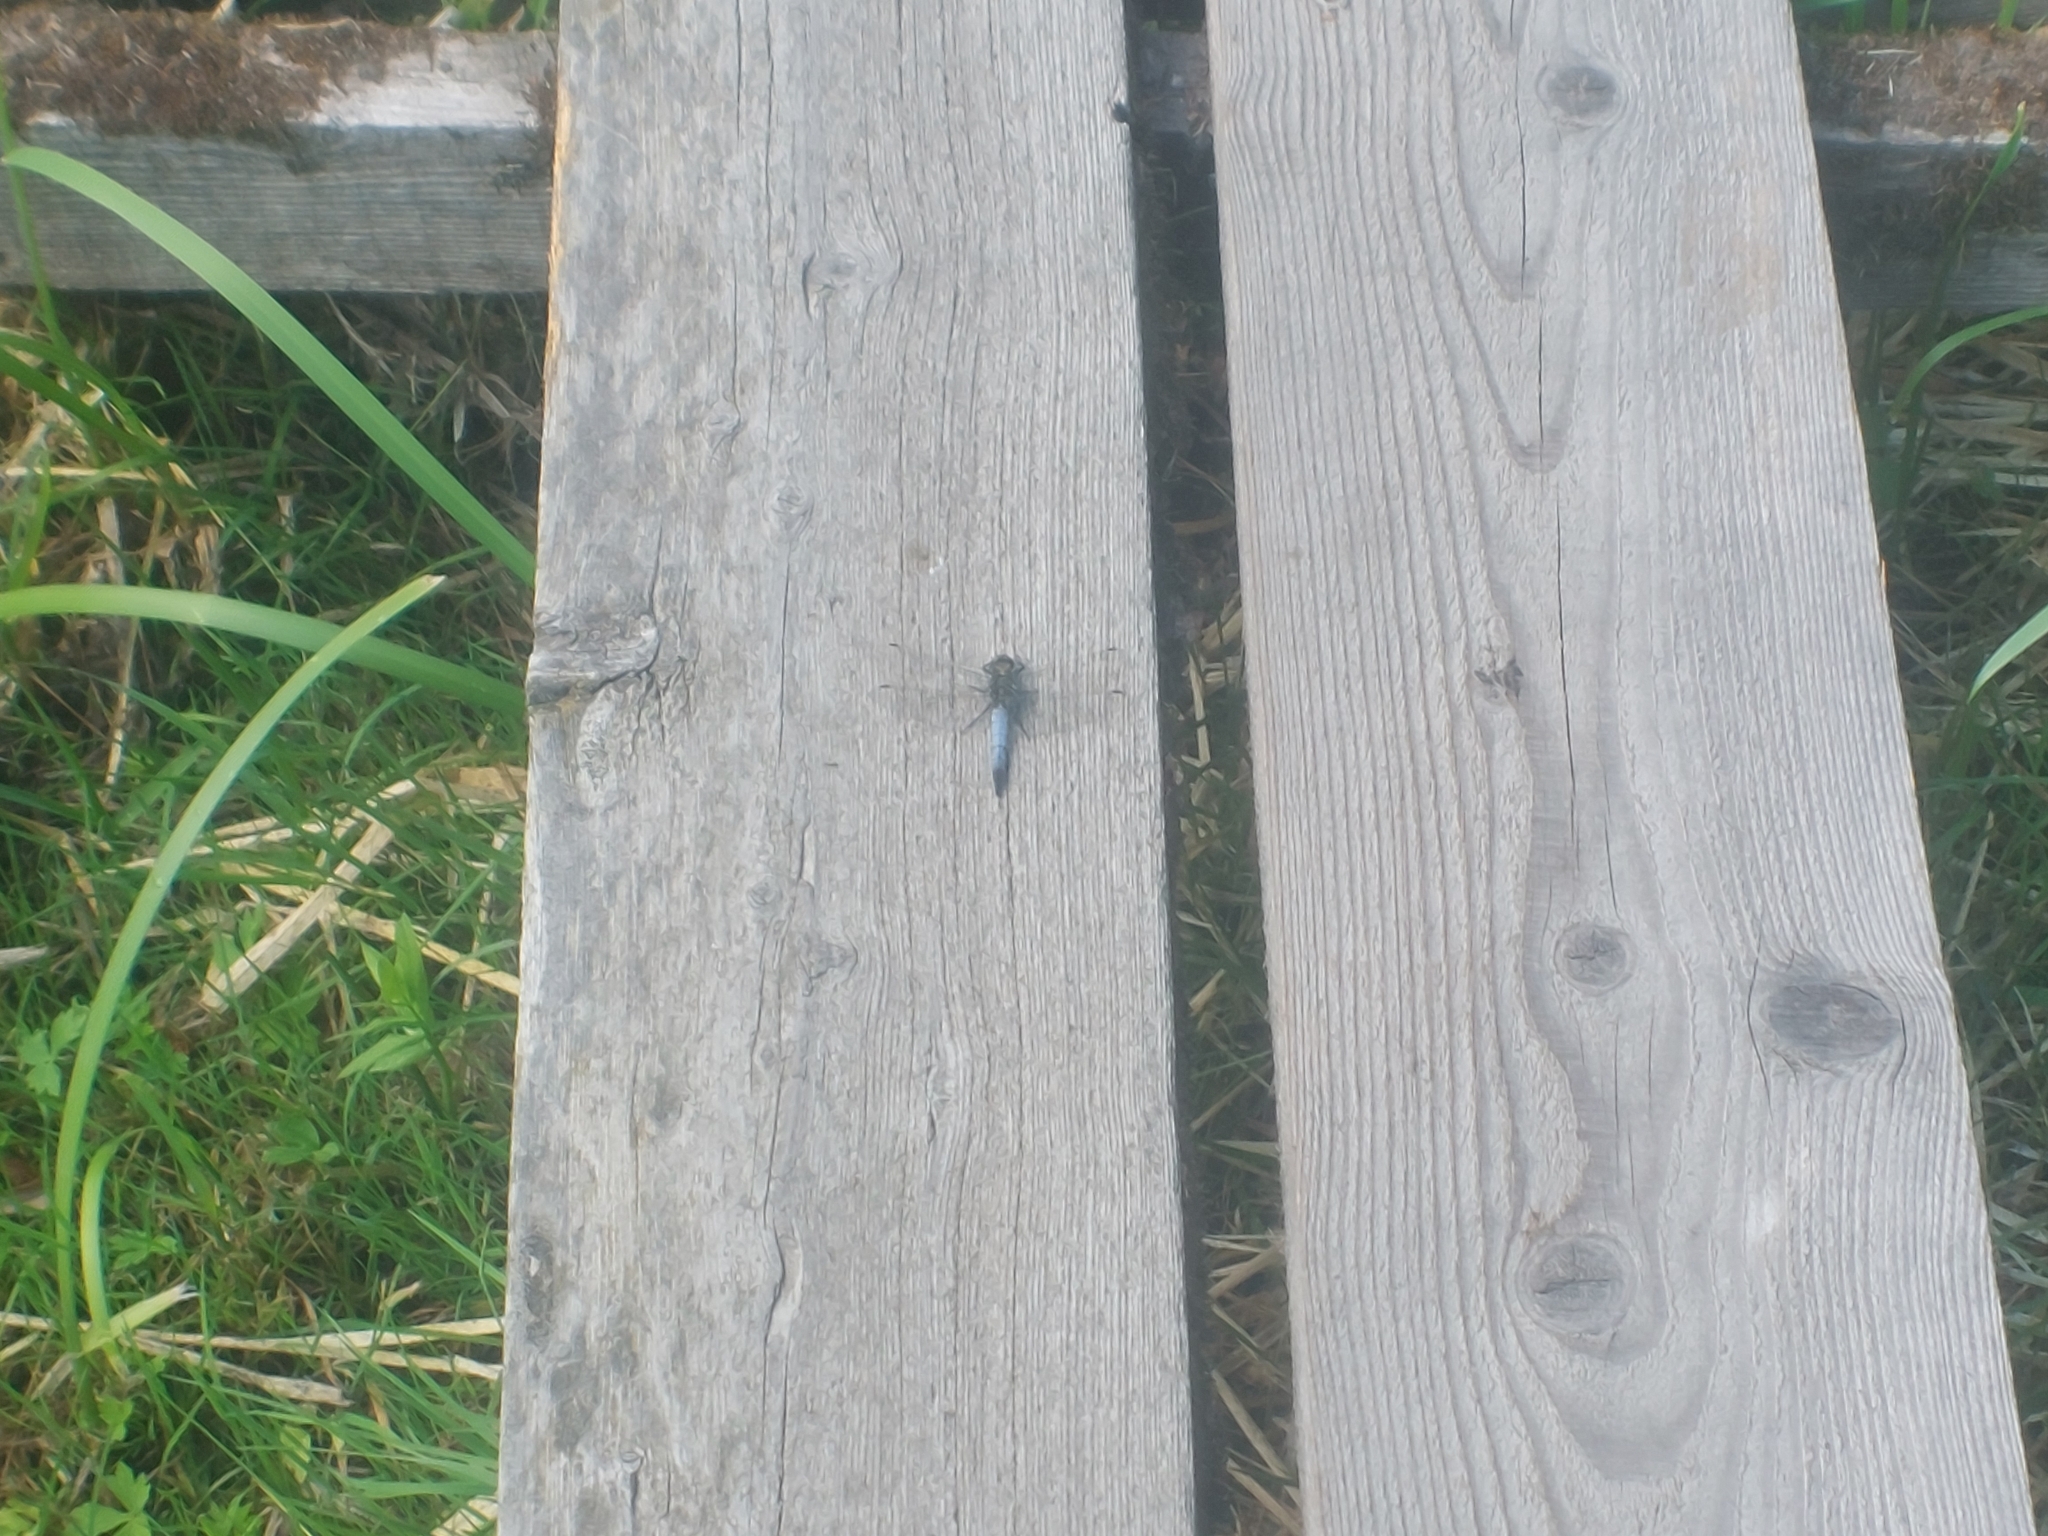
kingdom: Animalia
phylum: Arthropoda
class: Insecta
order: Odonata
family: Libellulidae
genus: Orthetrum
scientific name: Orthetrum cancellatum
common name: Black-tailed skimmer
